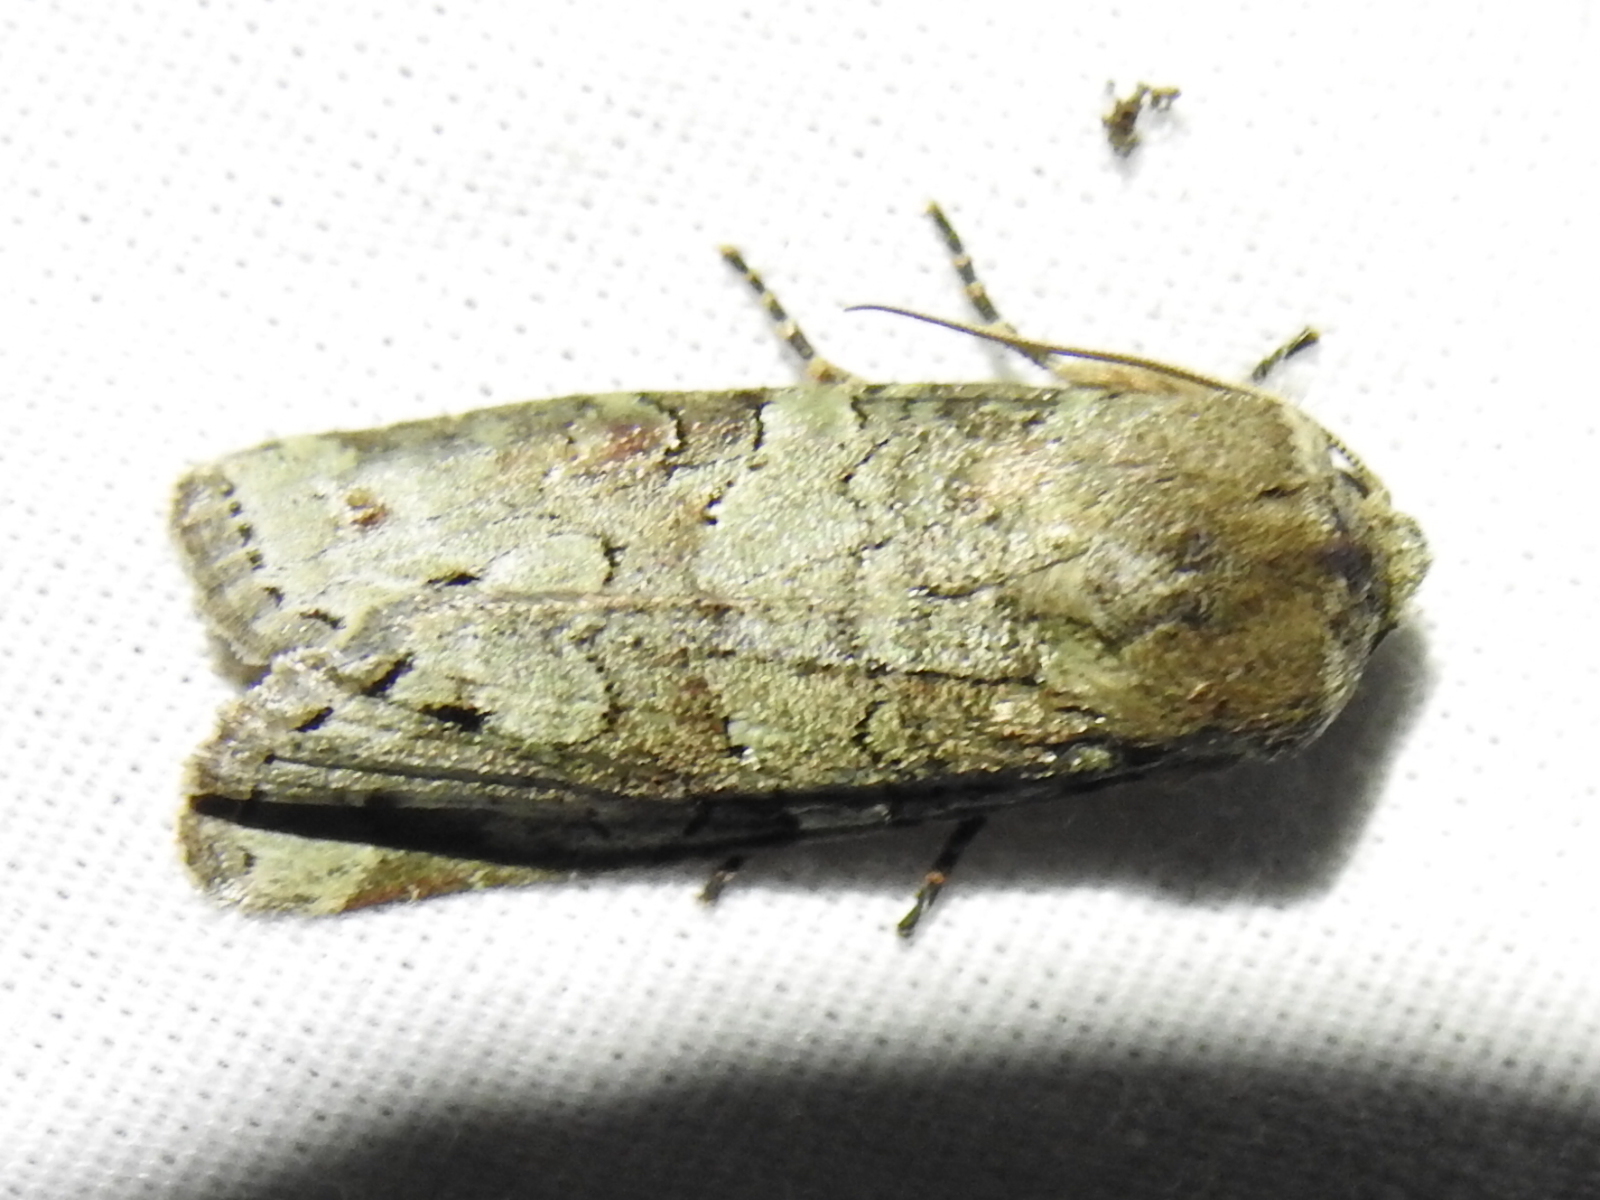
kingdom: Animalia
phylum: Arthropoda
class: Insecta
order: Lepidoptera
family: Noctuidae
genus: Egira
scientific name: Egira alternans
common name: Alternate woodling
